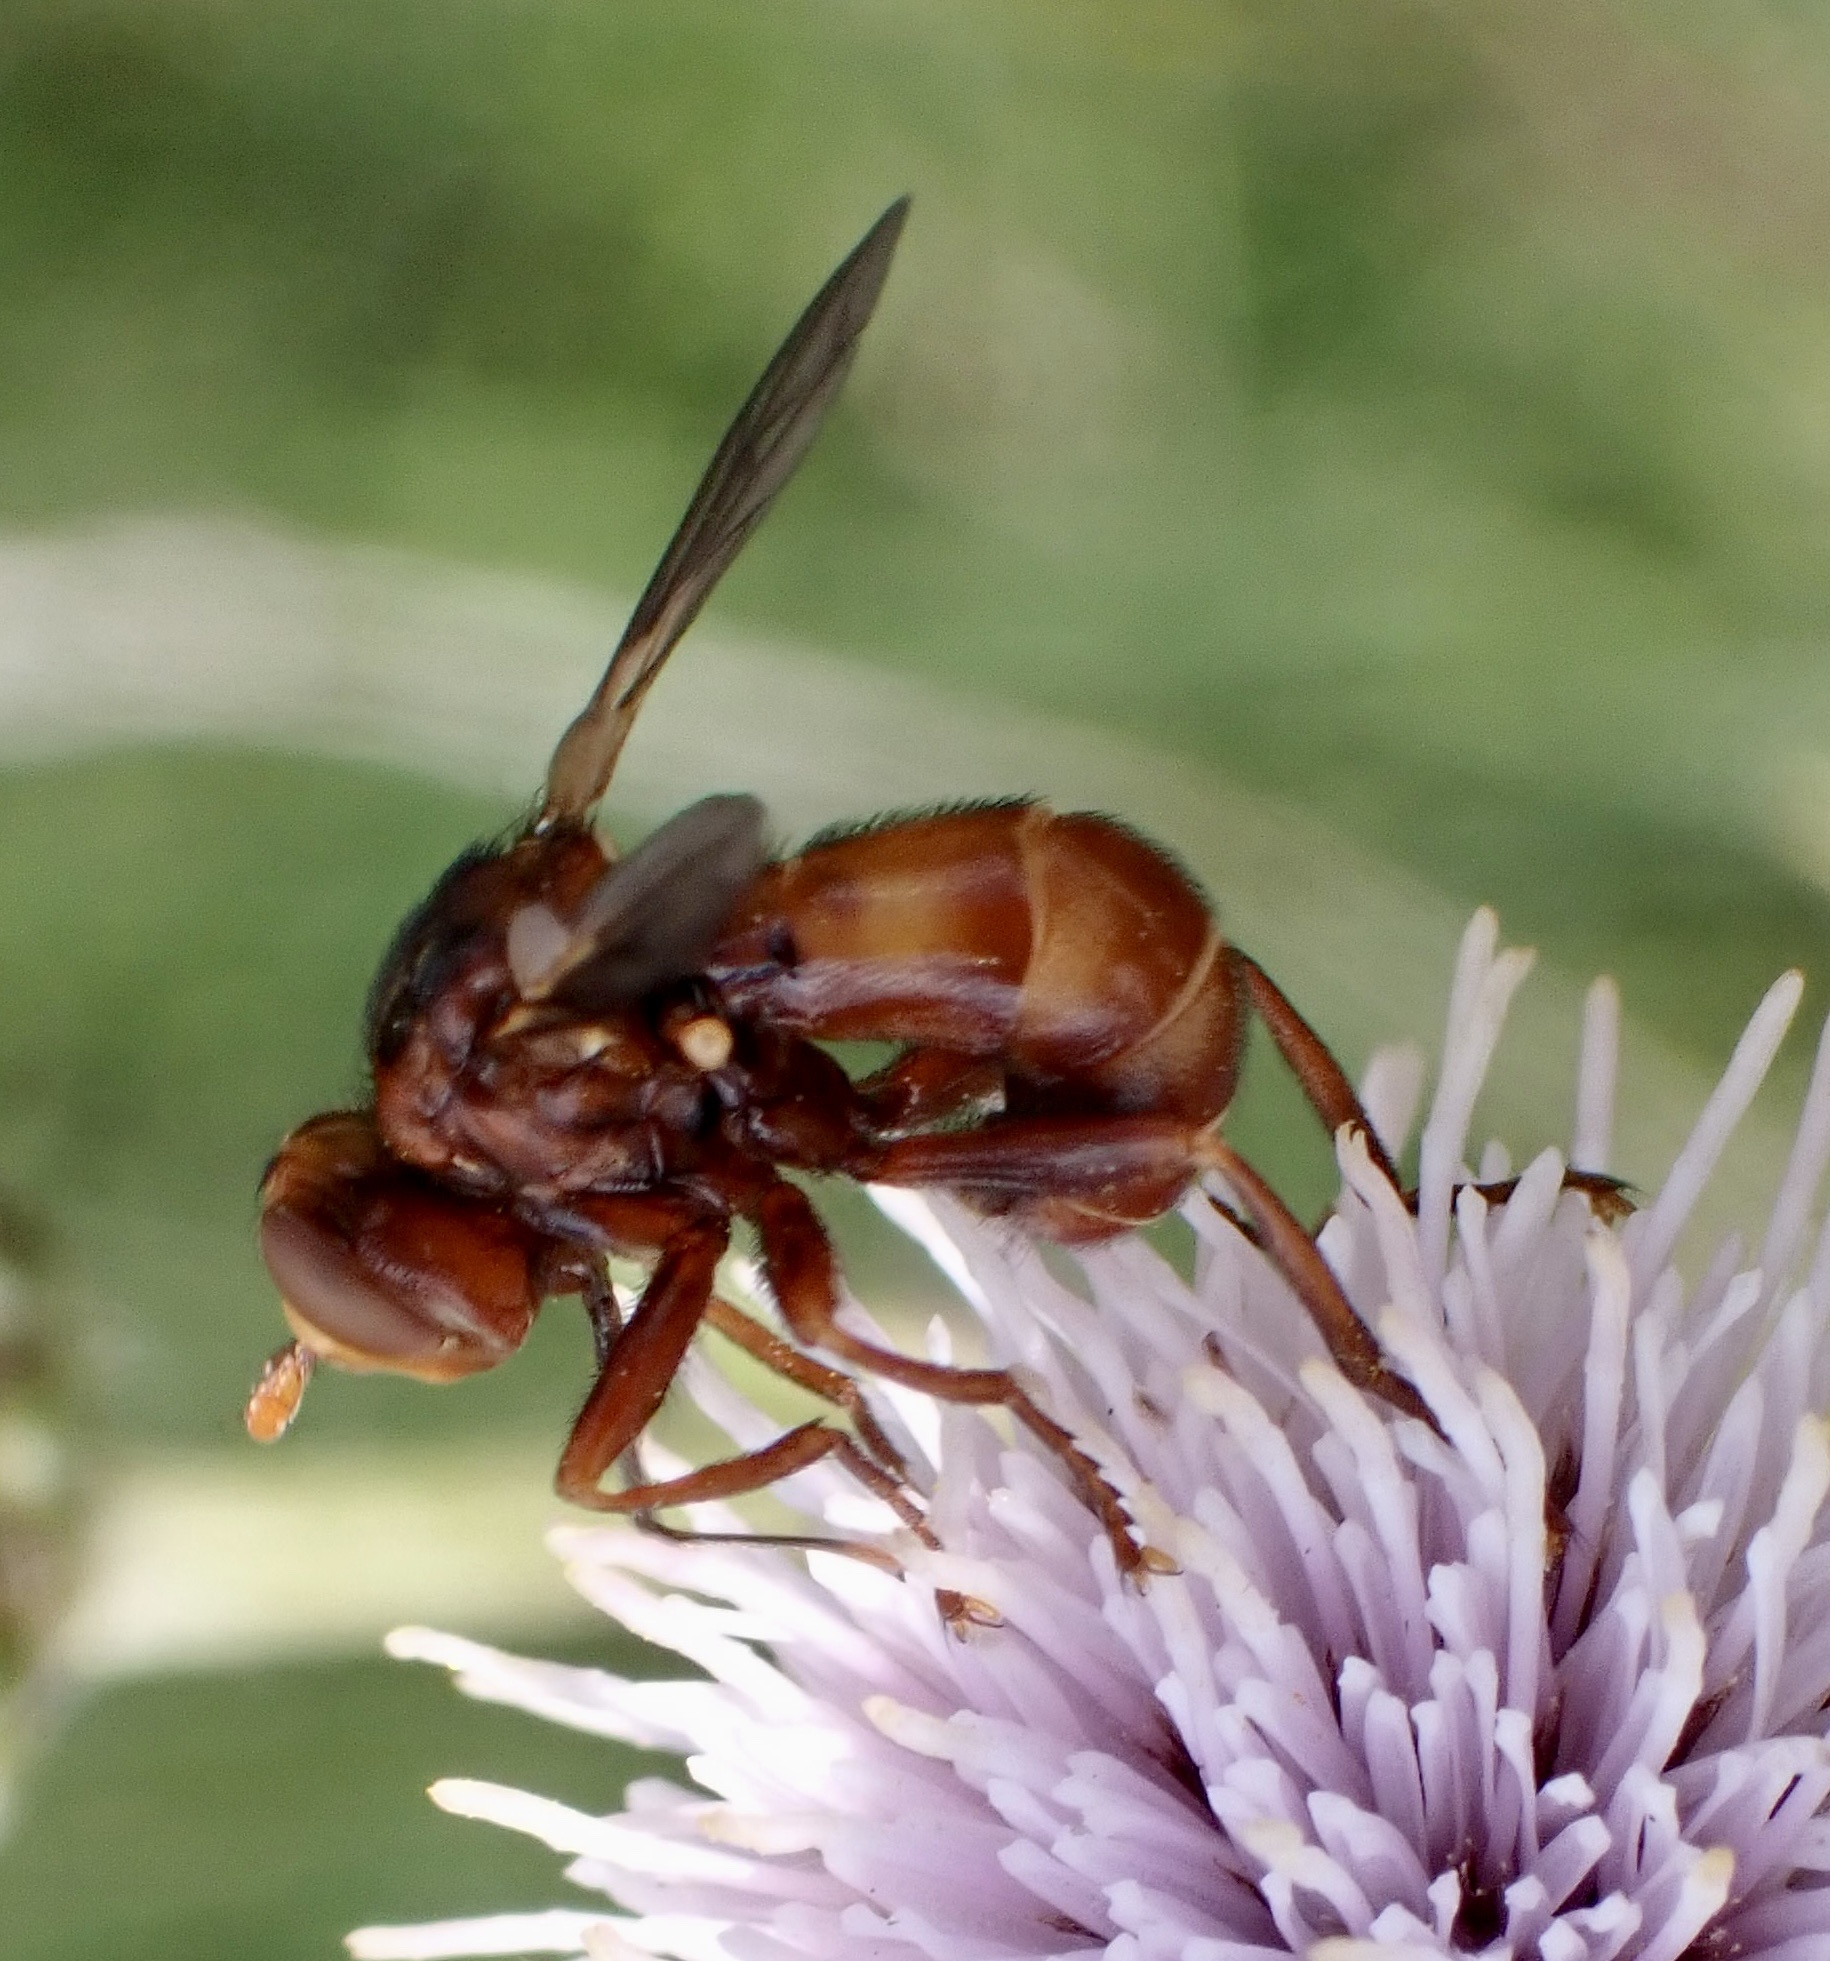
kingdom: Animalia
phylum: Arthropoda
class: Insecta
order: Diptera
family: Conopidae
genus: Sicus
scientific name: Sicus ferrugineus
